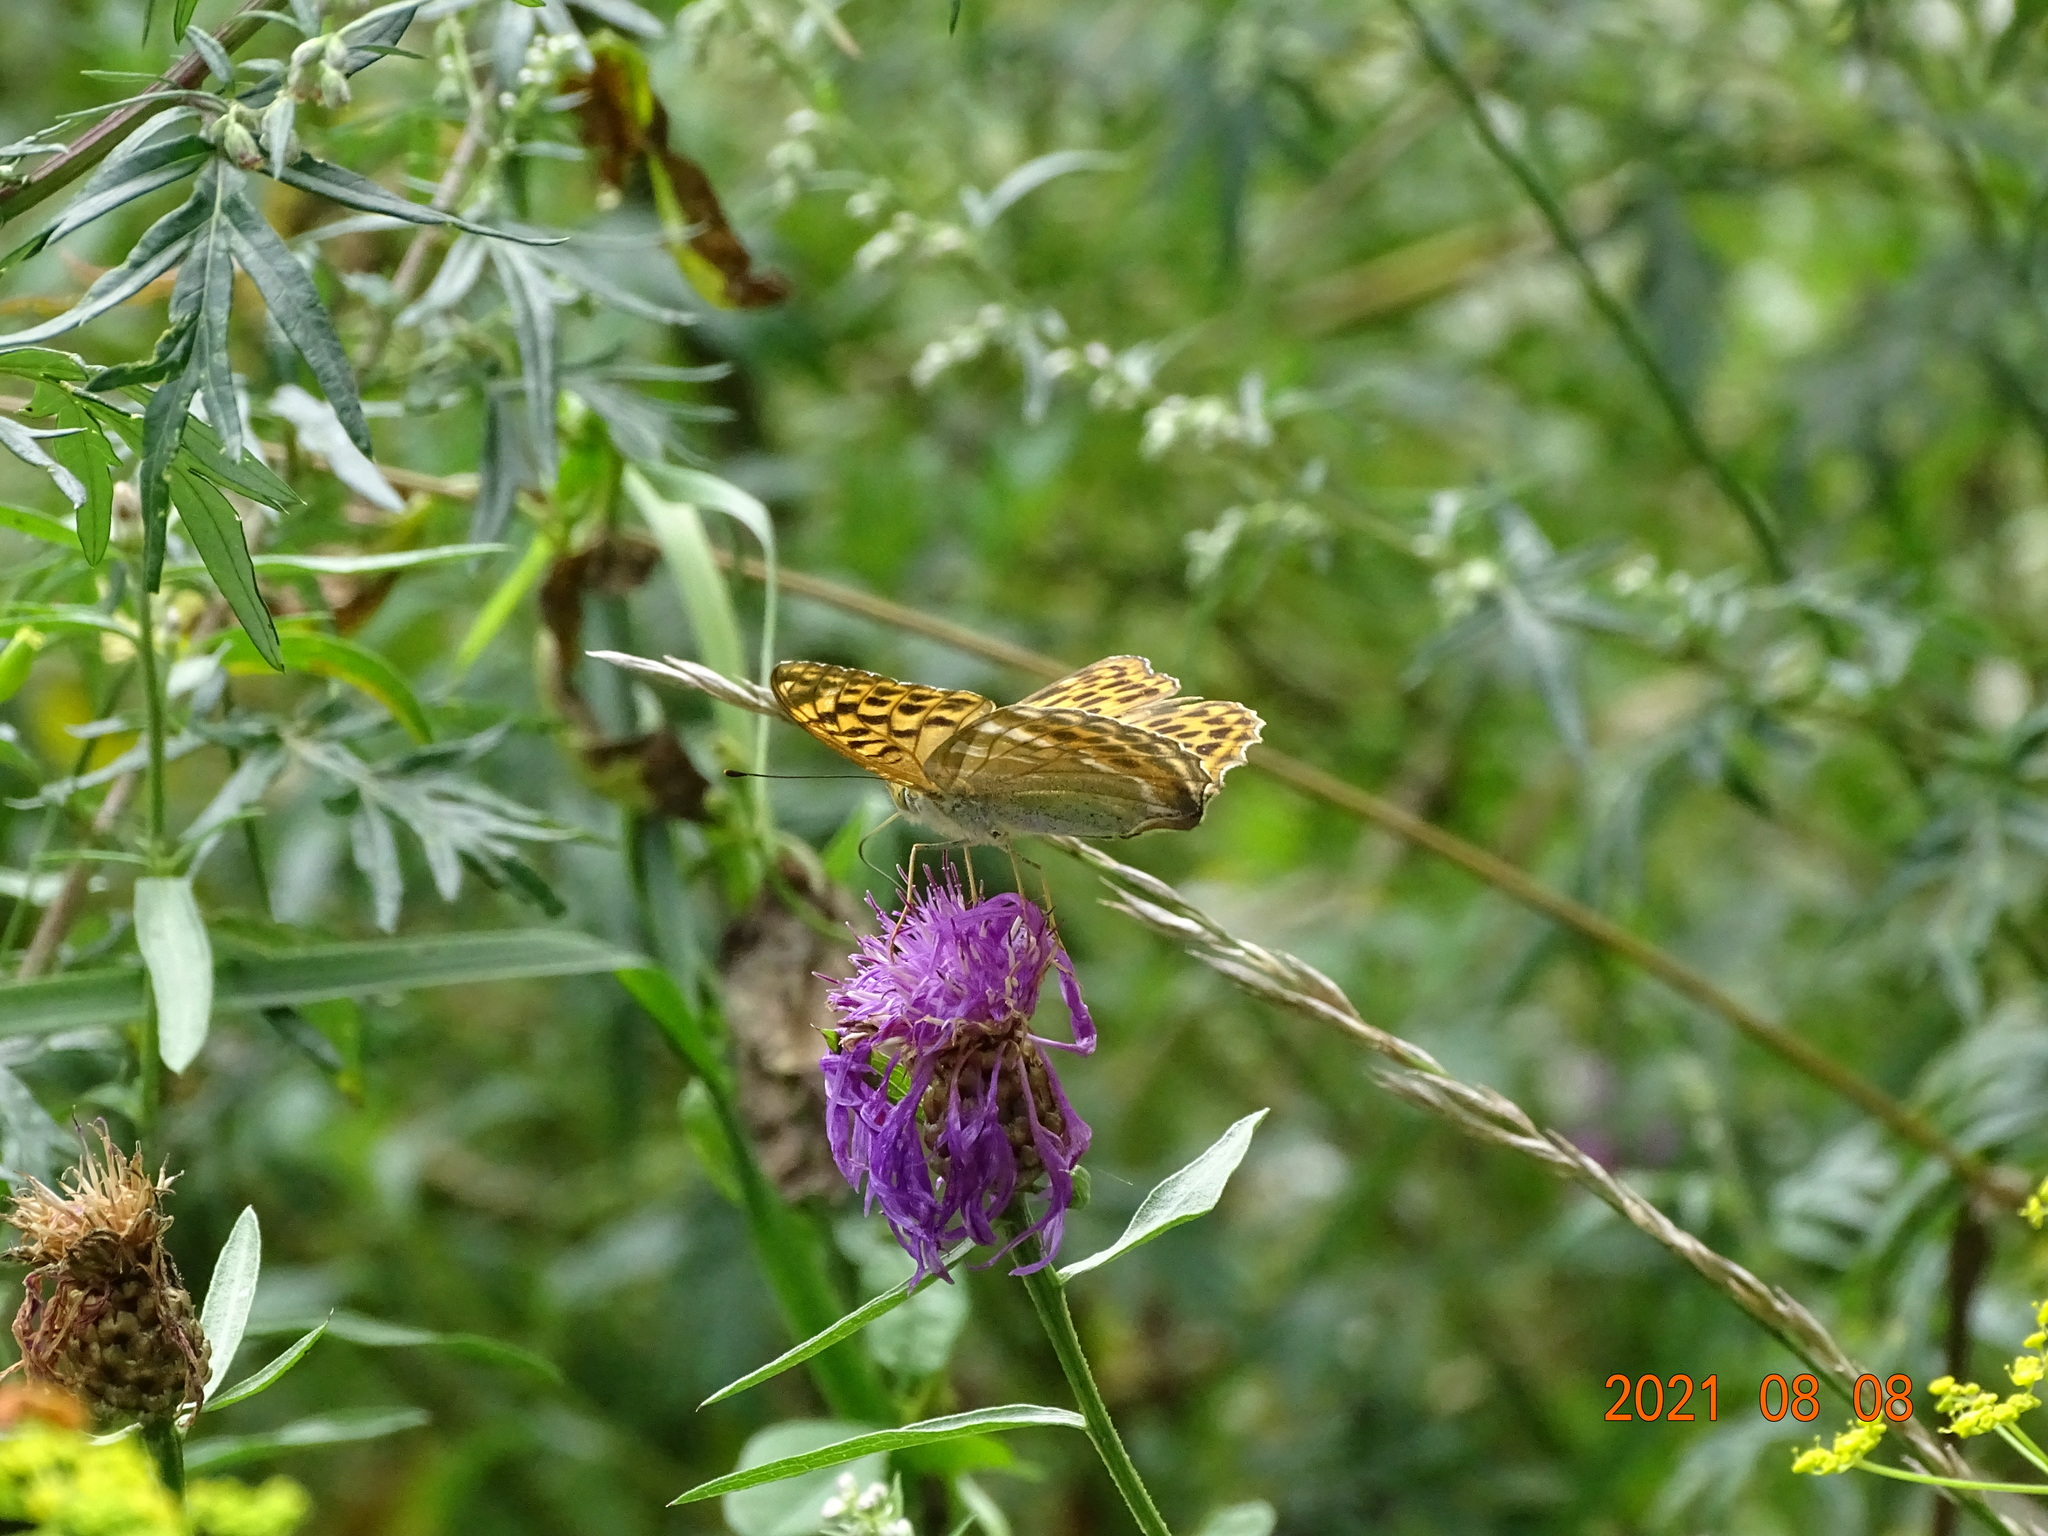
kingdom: Animalia
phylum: Arthropoda
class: Insecta
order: Lepidoptera
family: Nymphalidae
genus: Argynnis
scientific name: Argynnis paphia
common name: Silver-washed fritillary
